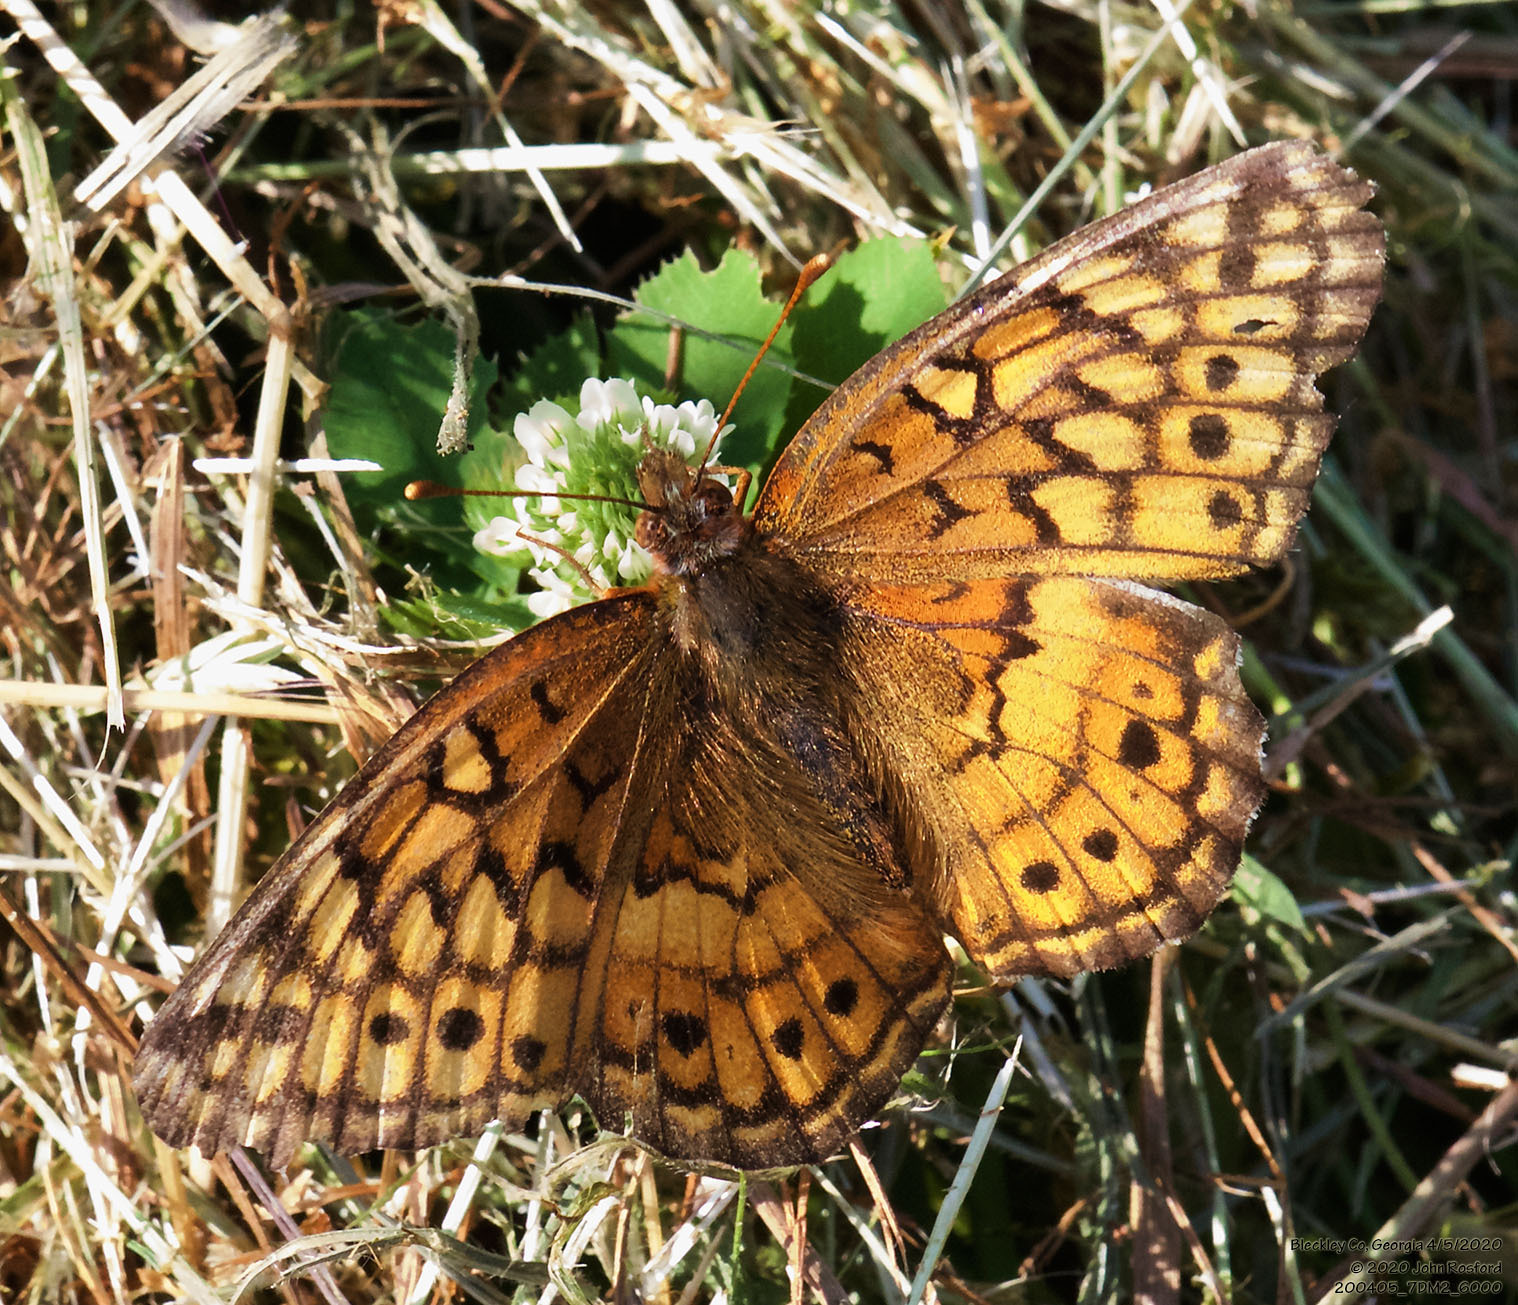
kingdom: Animalia
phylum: Arthropoda
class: Insecta
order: Lepidoptera
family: Nymphalidae
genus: Euptoieta
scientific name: Euptoieta claudia
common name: Variegated fritillary
